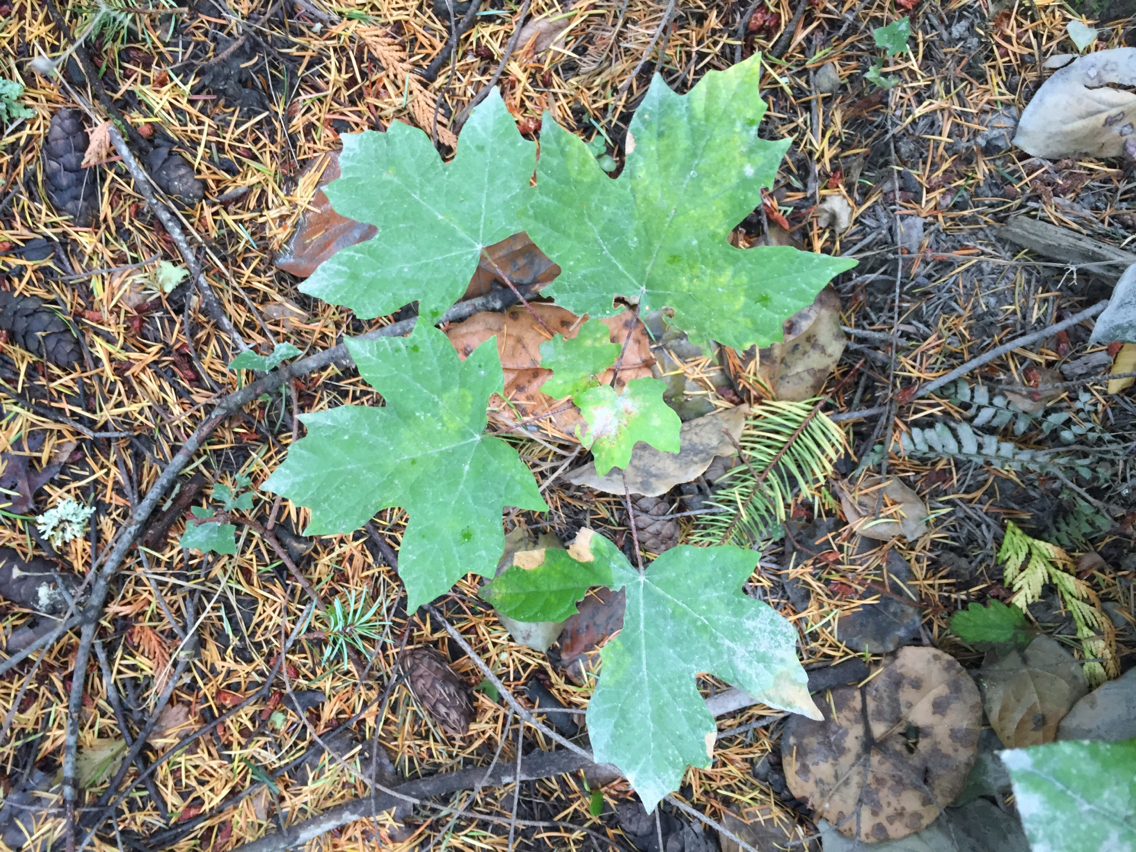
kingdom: Plantae
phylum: Tracheophyta
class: Magnoliopsida
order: Sapindales
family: Sapindaceae
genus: Acer
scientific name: Acer macrophyllum
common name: Oregon maple
